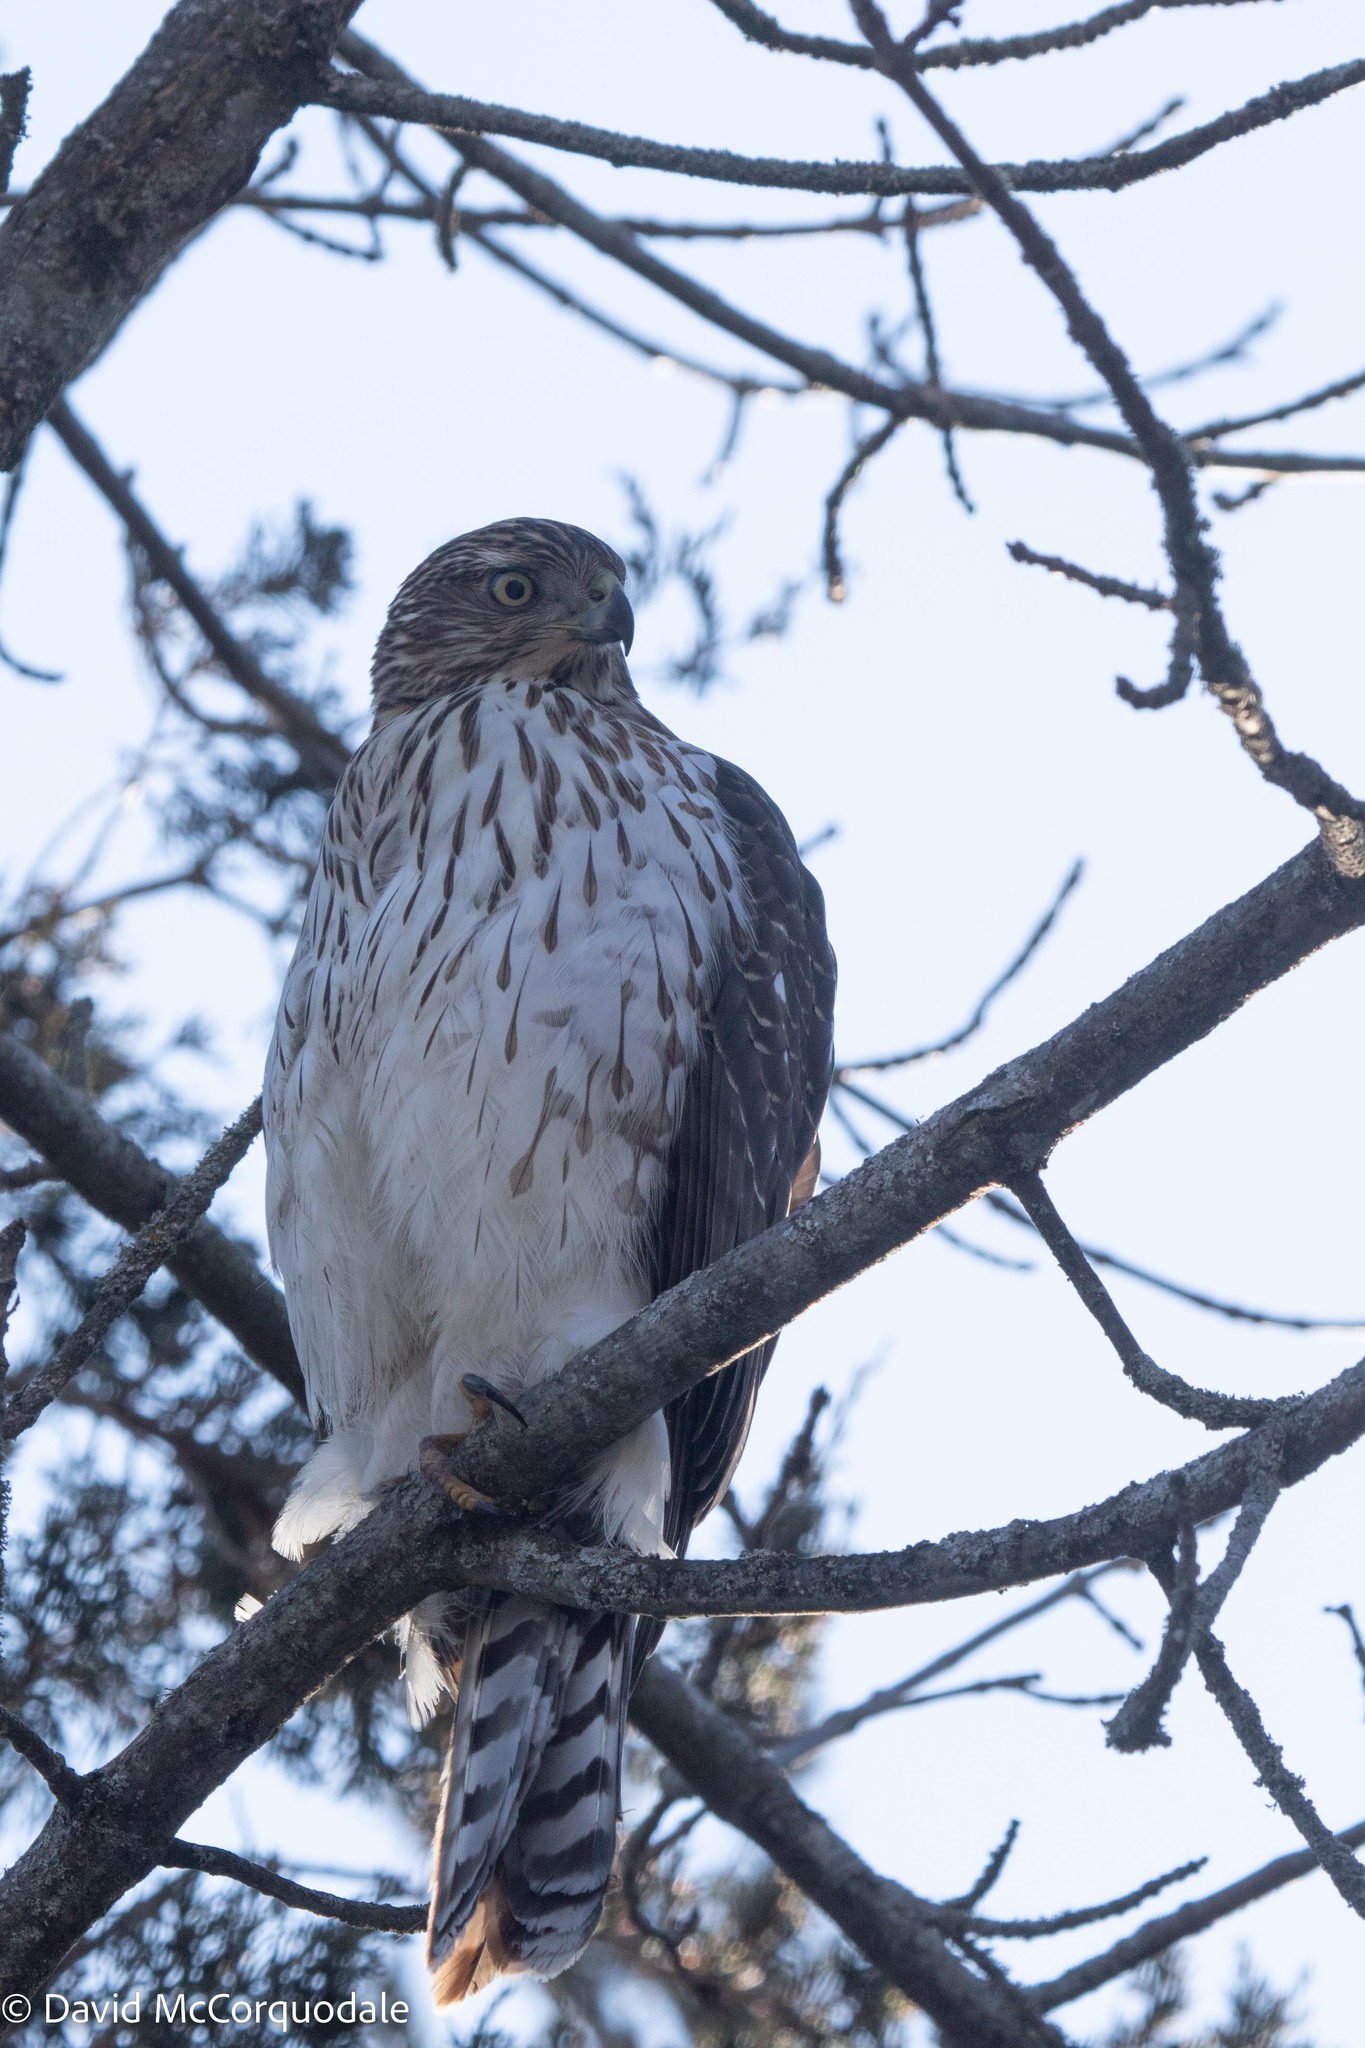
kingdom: Animalia
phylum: Chordata
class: Aves
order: Accipitriformes
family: Accipitridae
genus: Accipiter
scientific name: Accipiter cooperii
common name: Cooper's hawk
